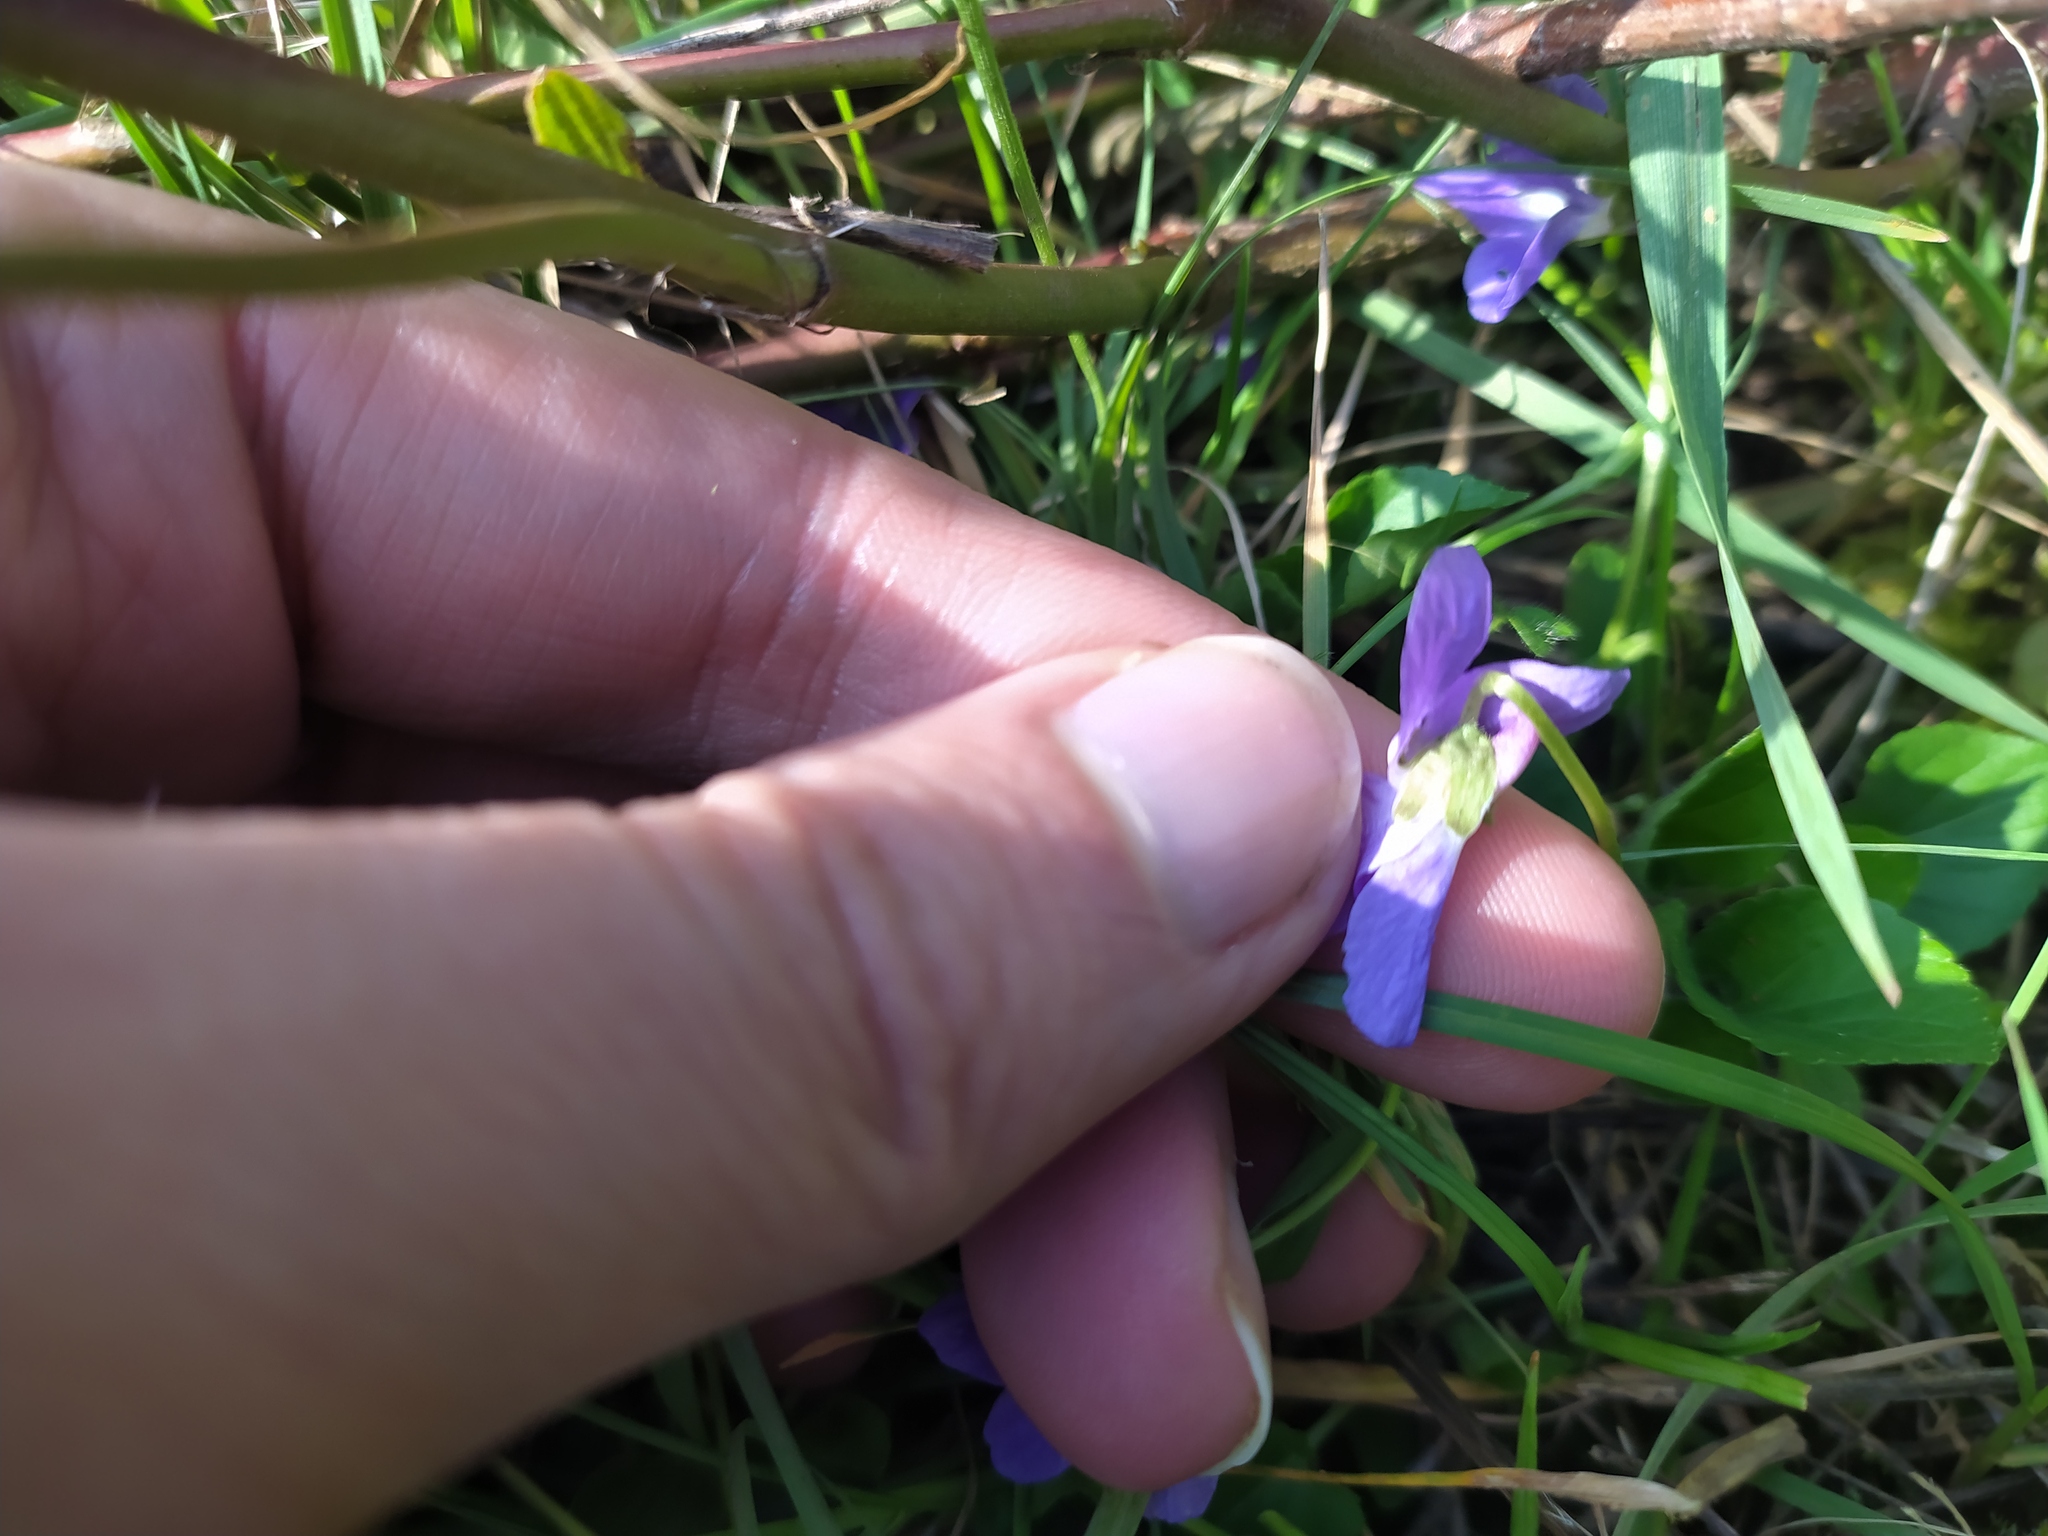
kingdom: Plantae
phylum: Tracheophyta
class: Magnoliopsida
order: Malpighiales
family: Violaceae
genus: Viola
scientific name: Viola hirta
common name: Hairy violet
